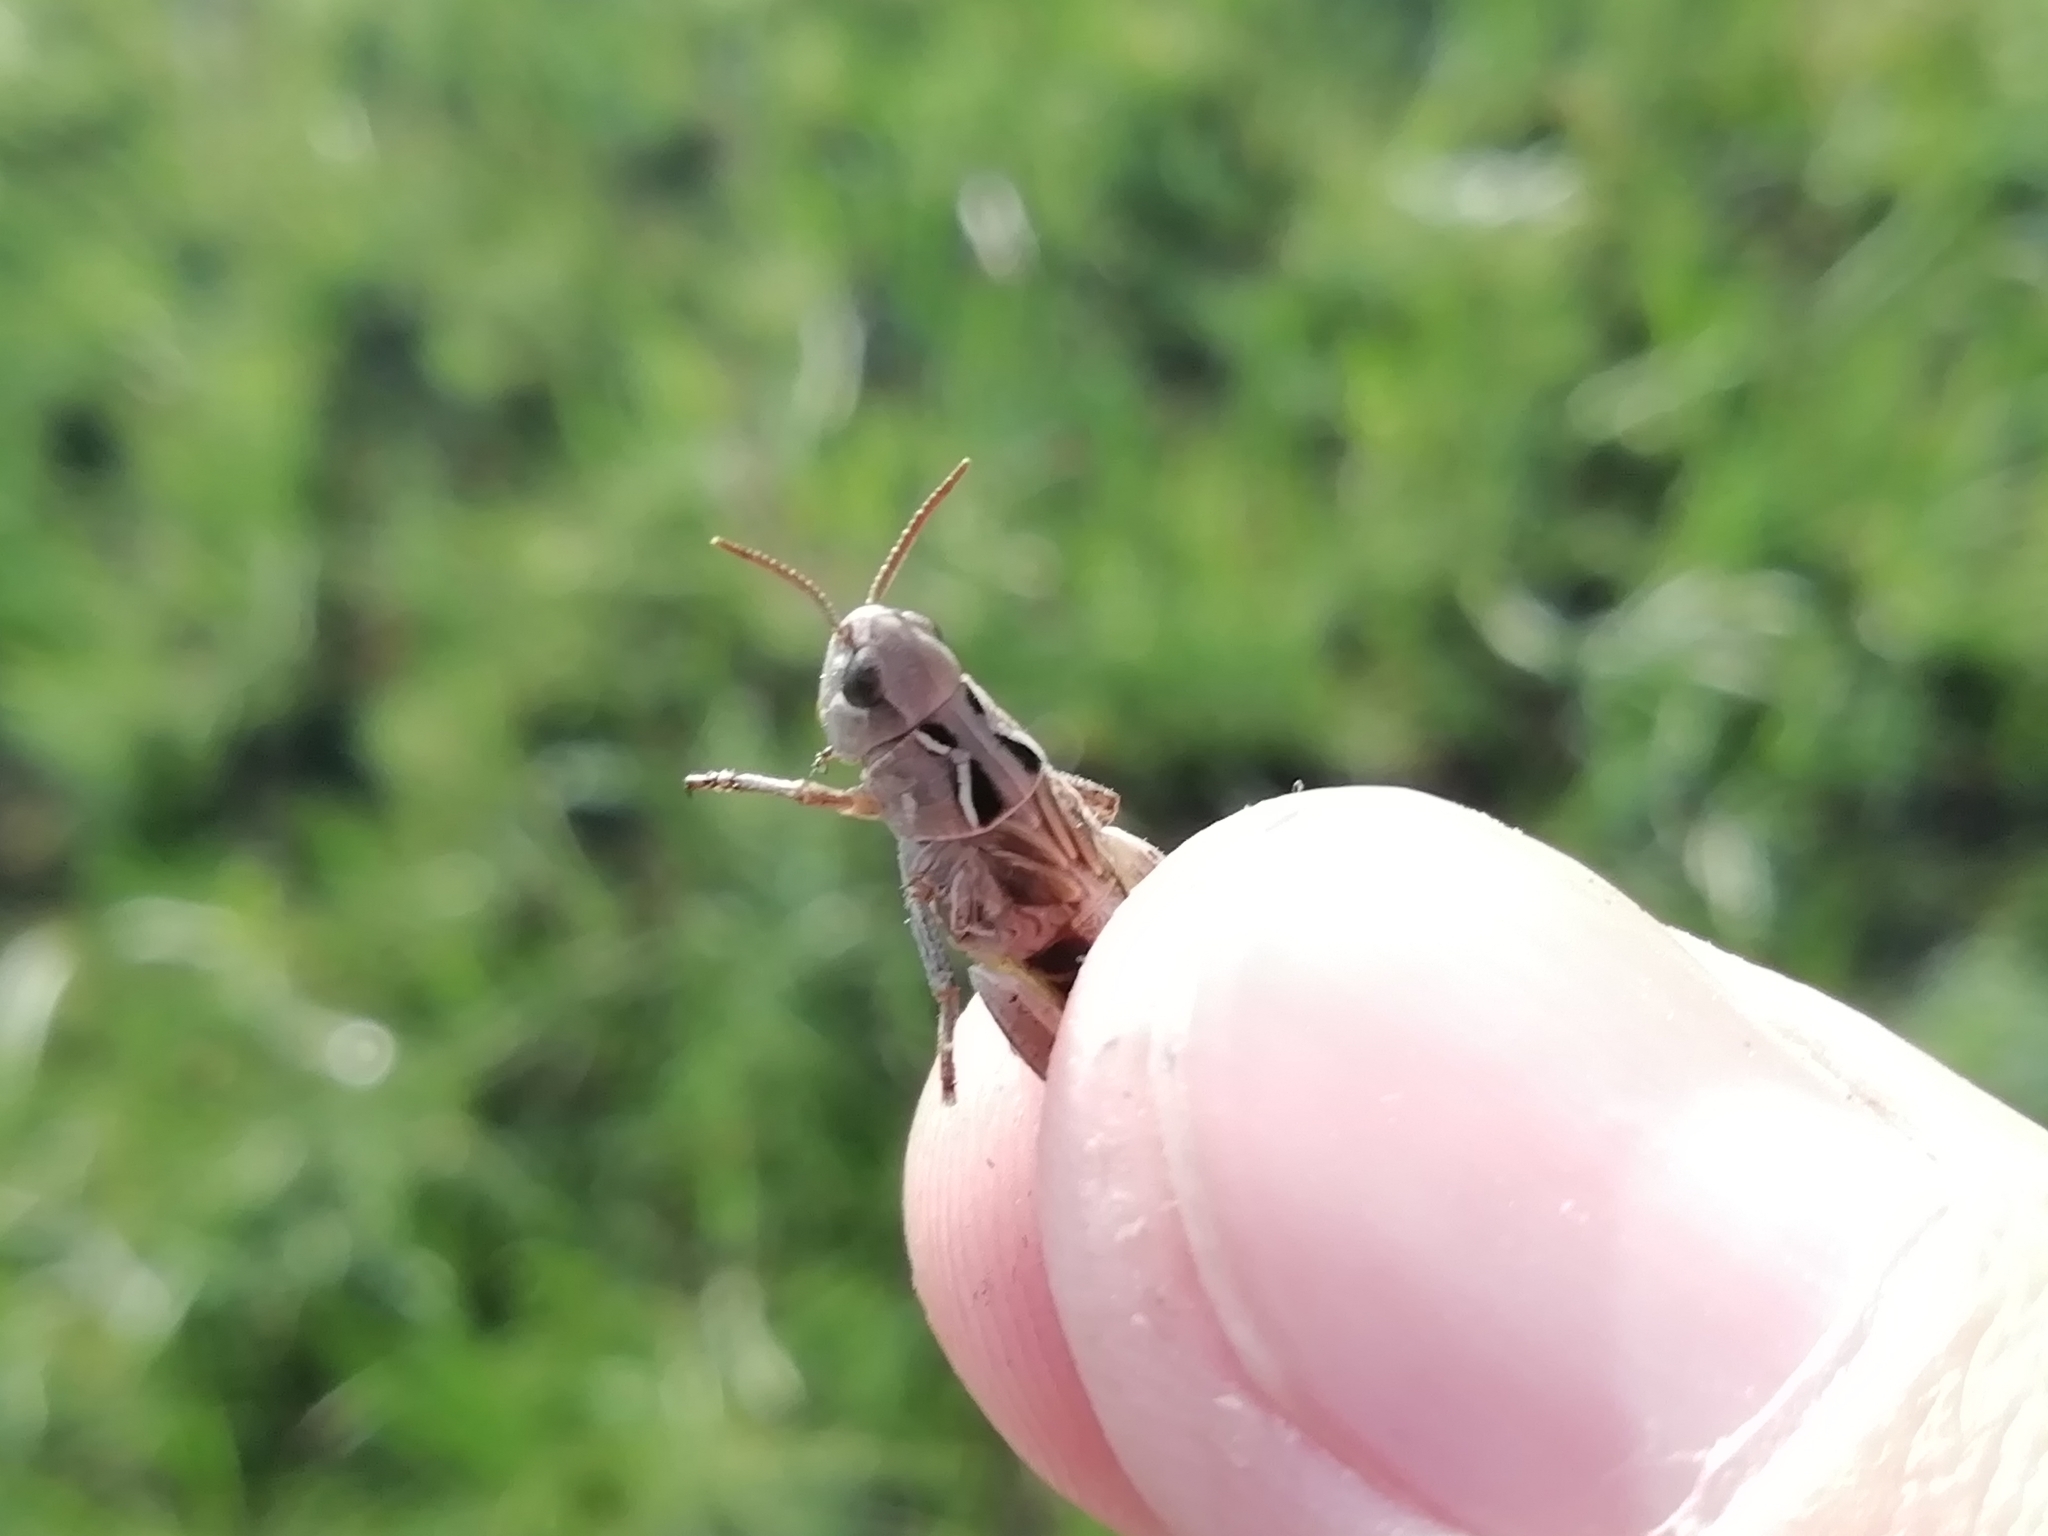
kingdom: Animalia
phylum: Arthropoda
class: Insecta
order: Orthoptera
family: Acrididae
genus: Arcyptera
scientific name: Arcyptera microptera
